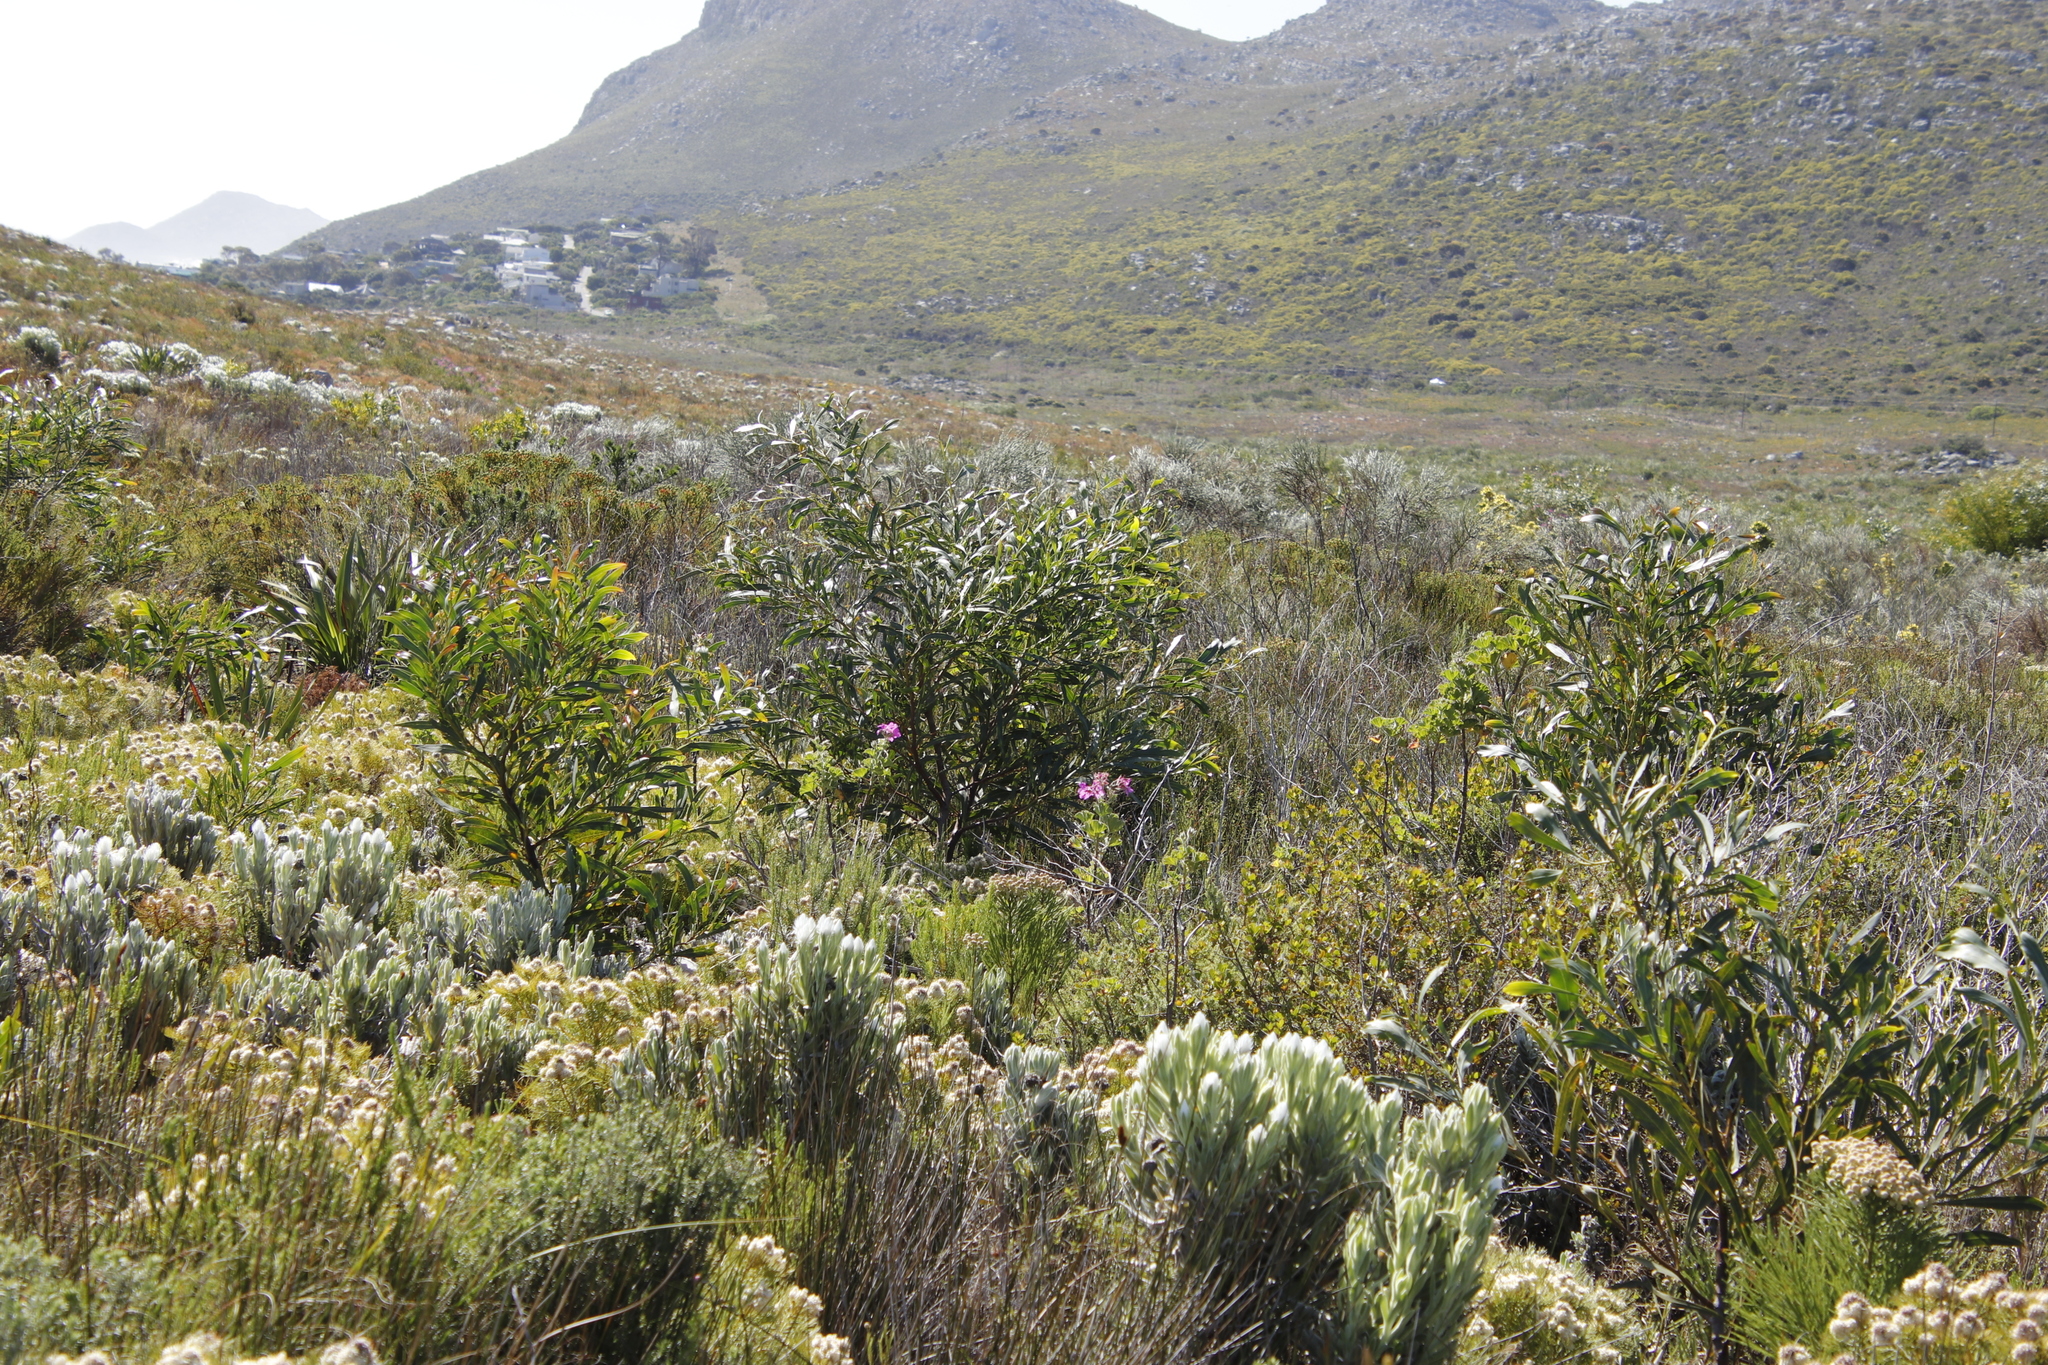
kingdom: Plantae
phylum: Tracheophyta
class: Magnoliopsida
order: Fabales
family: Fabaceae
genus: Acacia
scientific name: Acacia saligna
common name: Orange wattle
